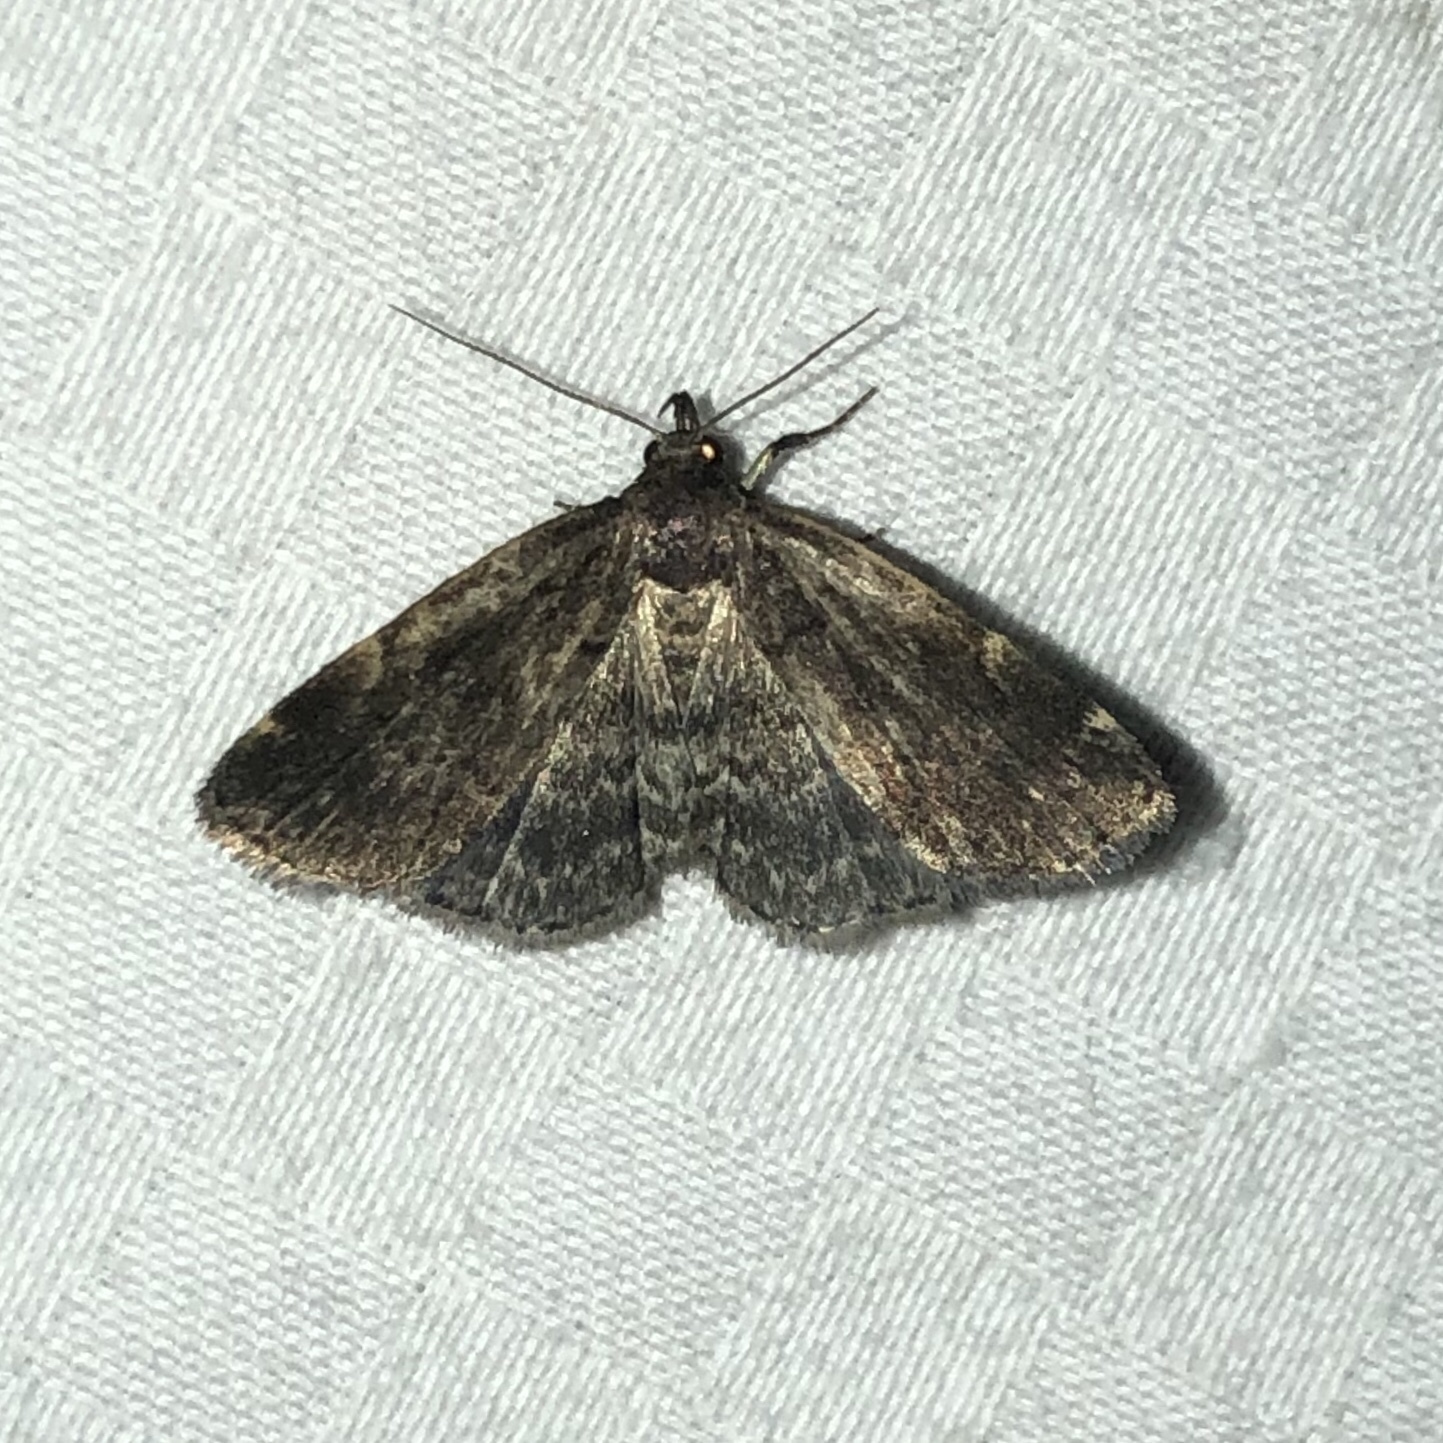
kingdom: Animalia
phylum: Arthropoda
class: Insecta
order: Lepidoptera
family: Erebidae
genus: Idia
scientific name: Idia forbesii
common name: Forbes' idia moth
